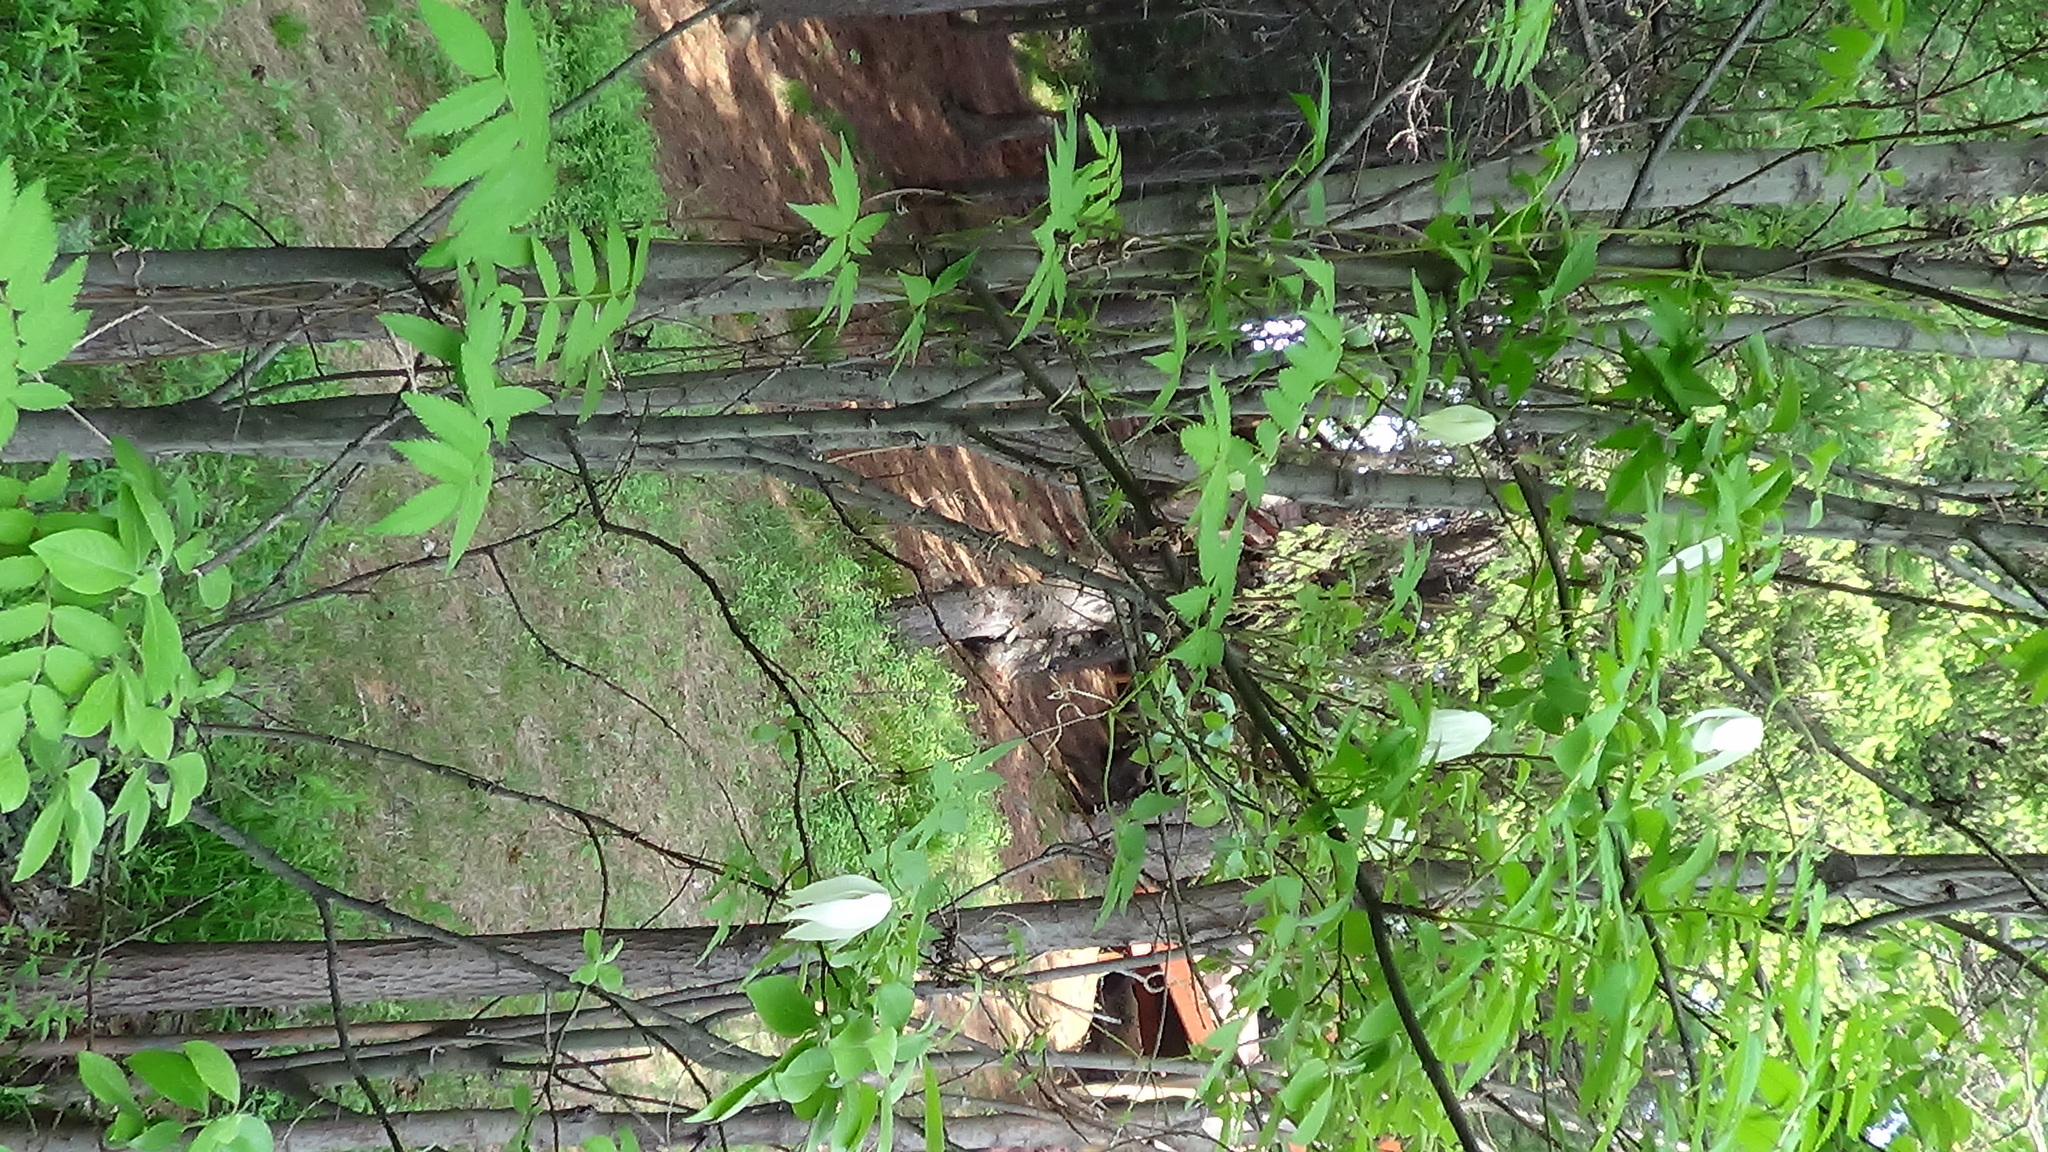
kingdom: Plantae
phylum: Tracheophyta
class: Magnoliopsida
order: Ranunculales
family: Ranunculaceae
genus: Clematis
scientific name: Clematis sibirica
